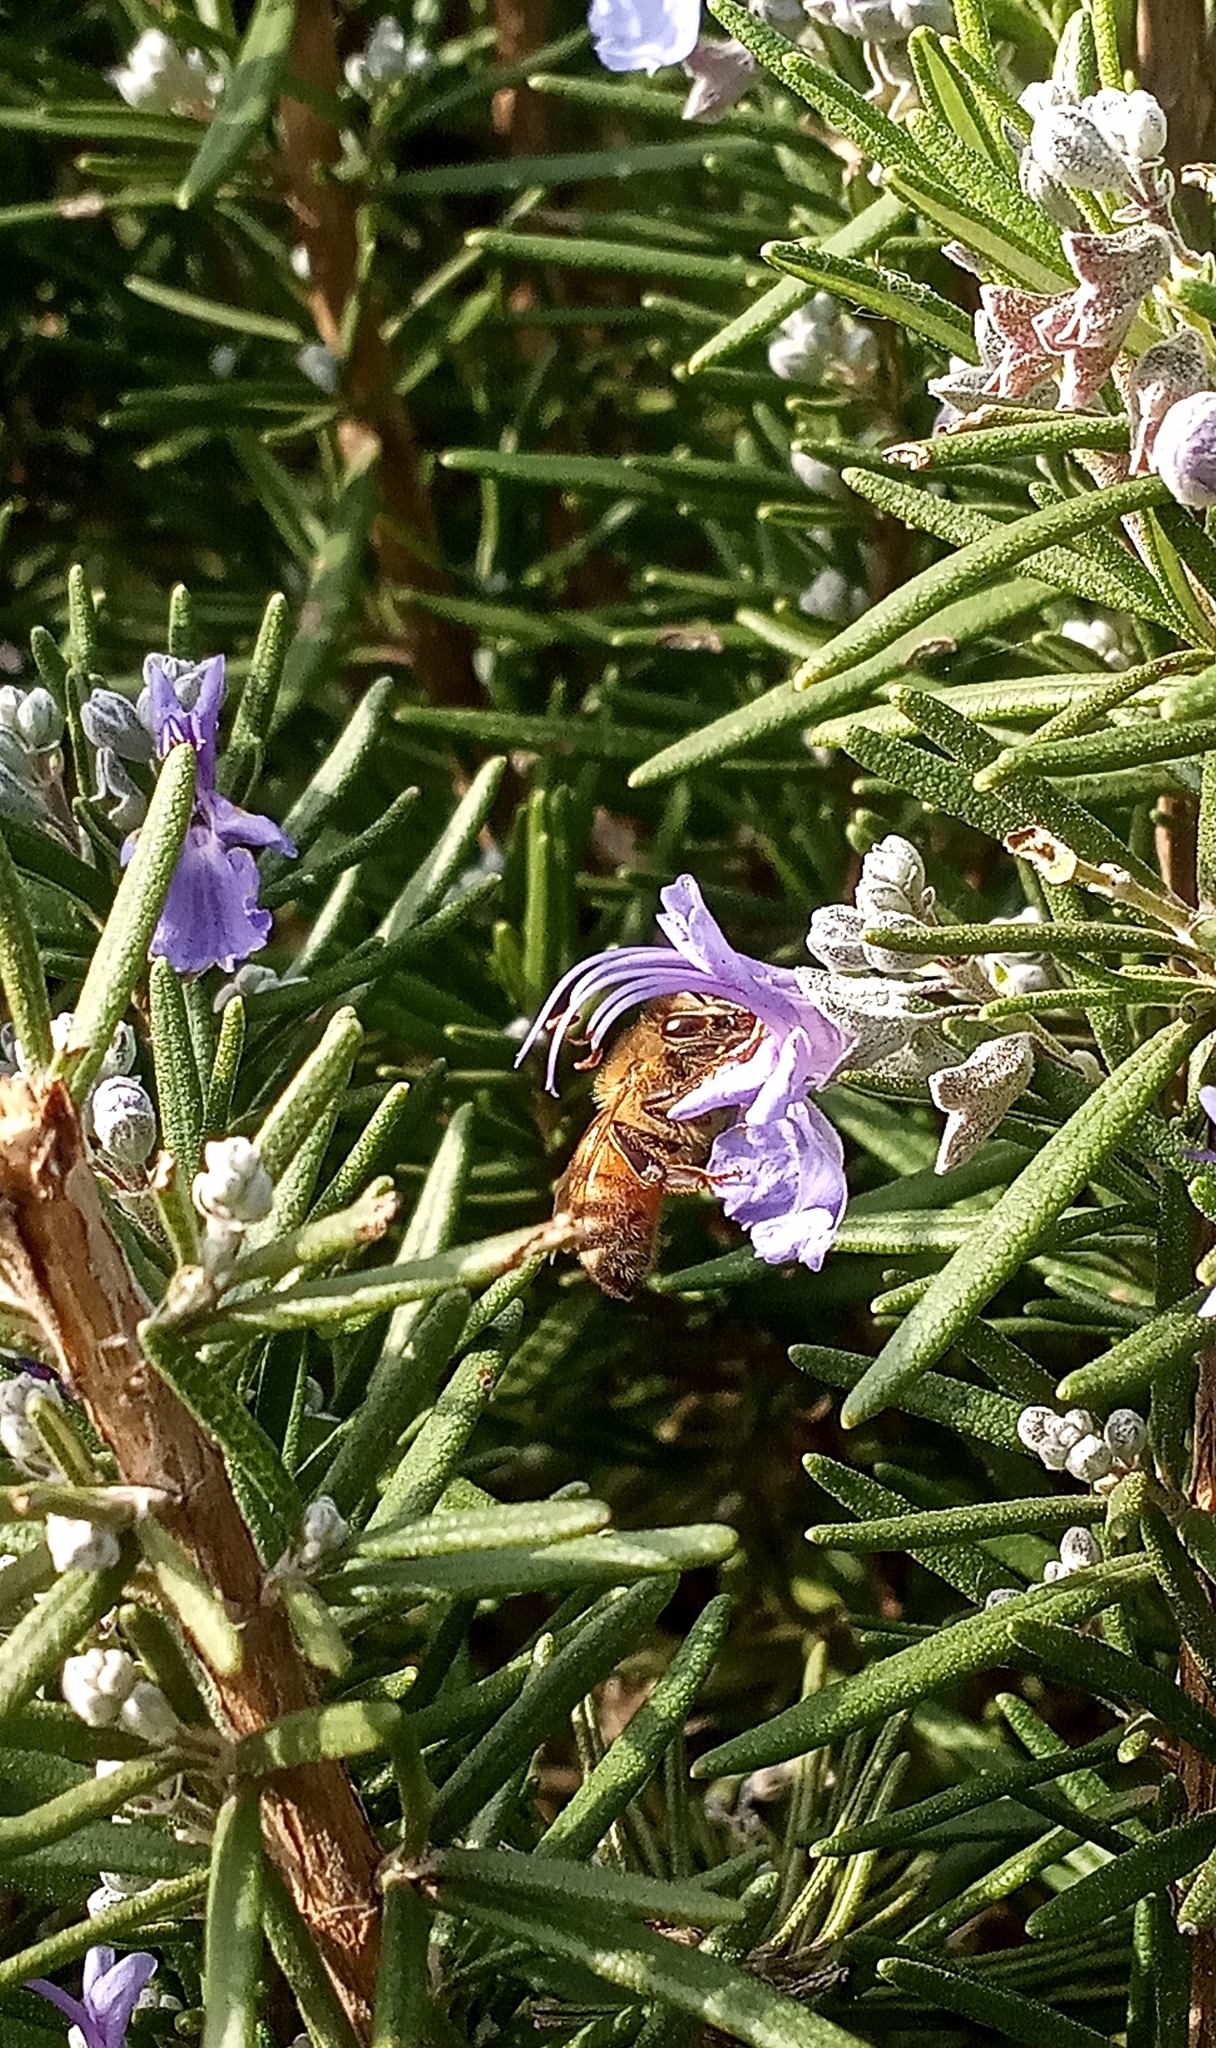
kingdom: Animalia
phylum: Arthropoda
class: Insecta
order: Hymenoptera
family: Apidae
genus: Apis
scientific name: Apis mellifera
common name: Honey bee
